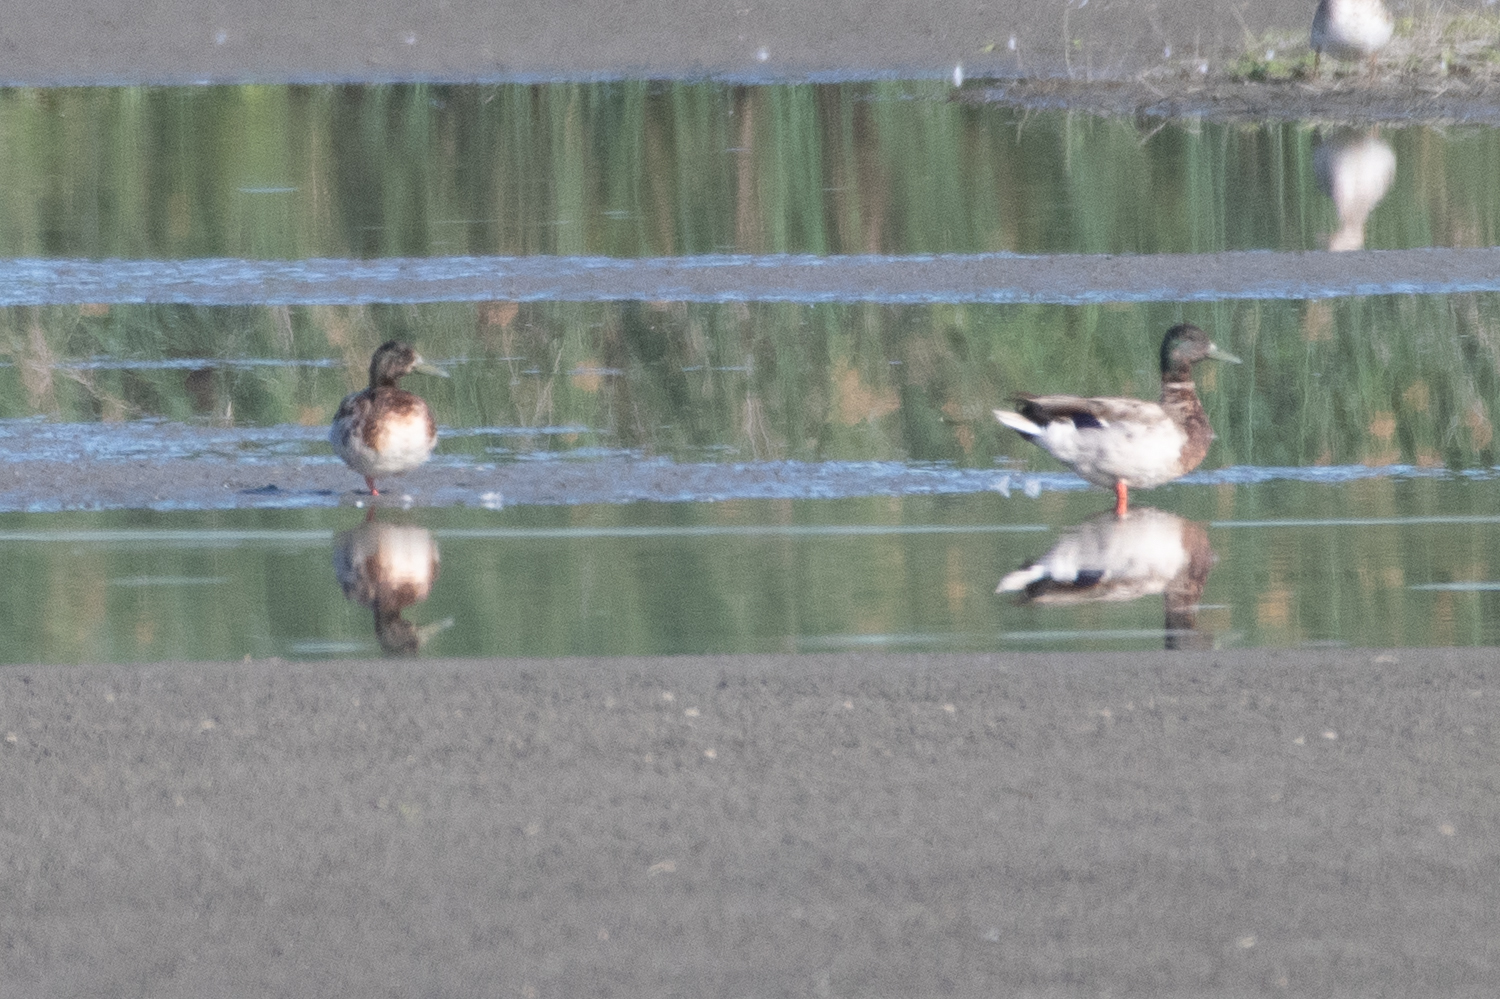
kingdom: Animalia
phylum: Chordata
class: Aves
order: Anseriformes
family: Anatidae
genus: Anas
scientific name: Anas platyrhynchos
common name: Mallard
